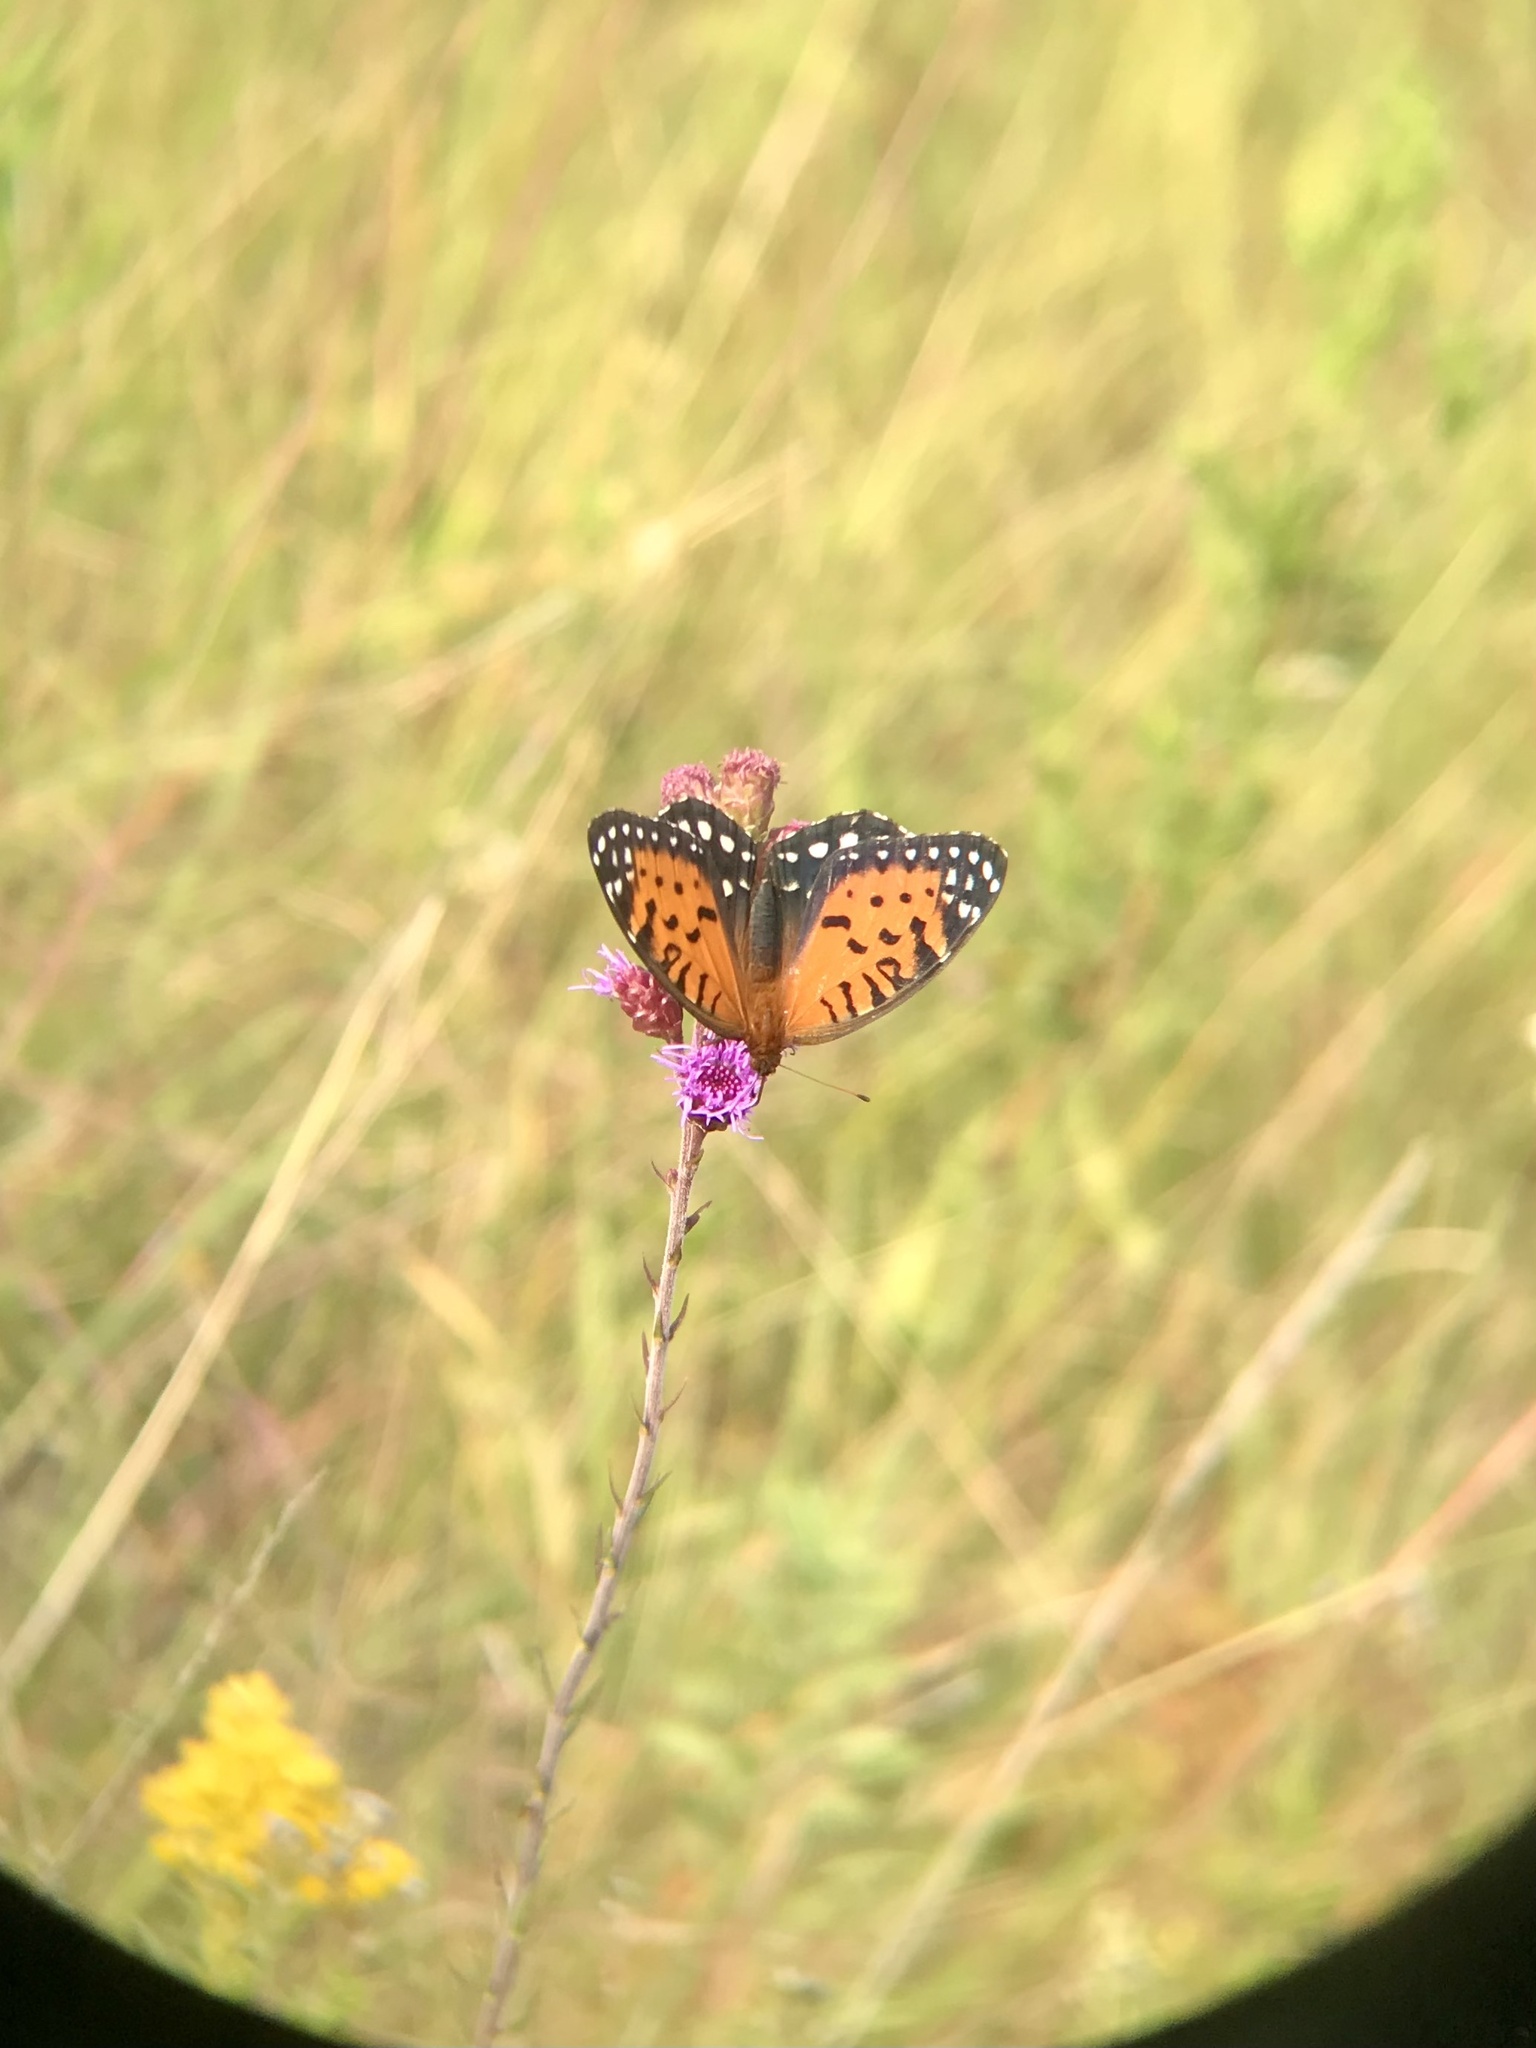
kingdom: Animalia
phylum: Arthropoda
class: Insecta
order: Lepidoptera
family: Nymphalidae
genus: Speyeria
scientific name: Speyeria idalia
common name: Regal fritillary
